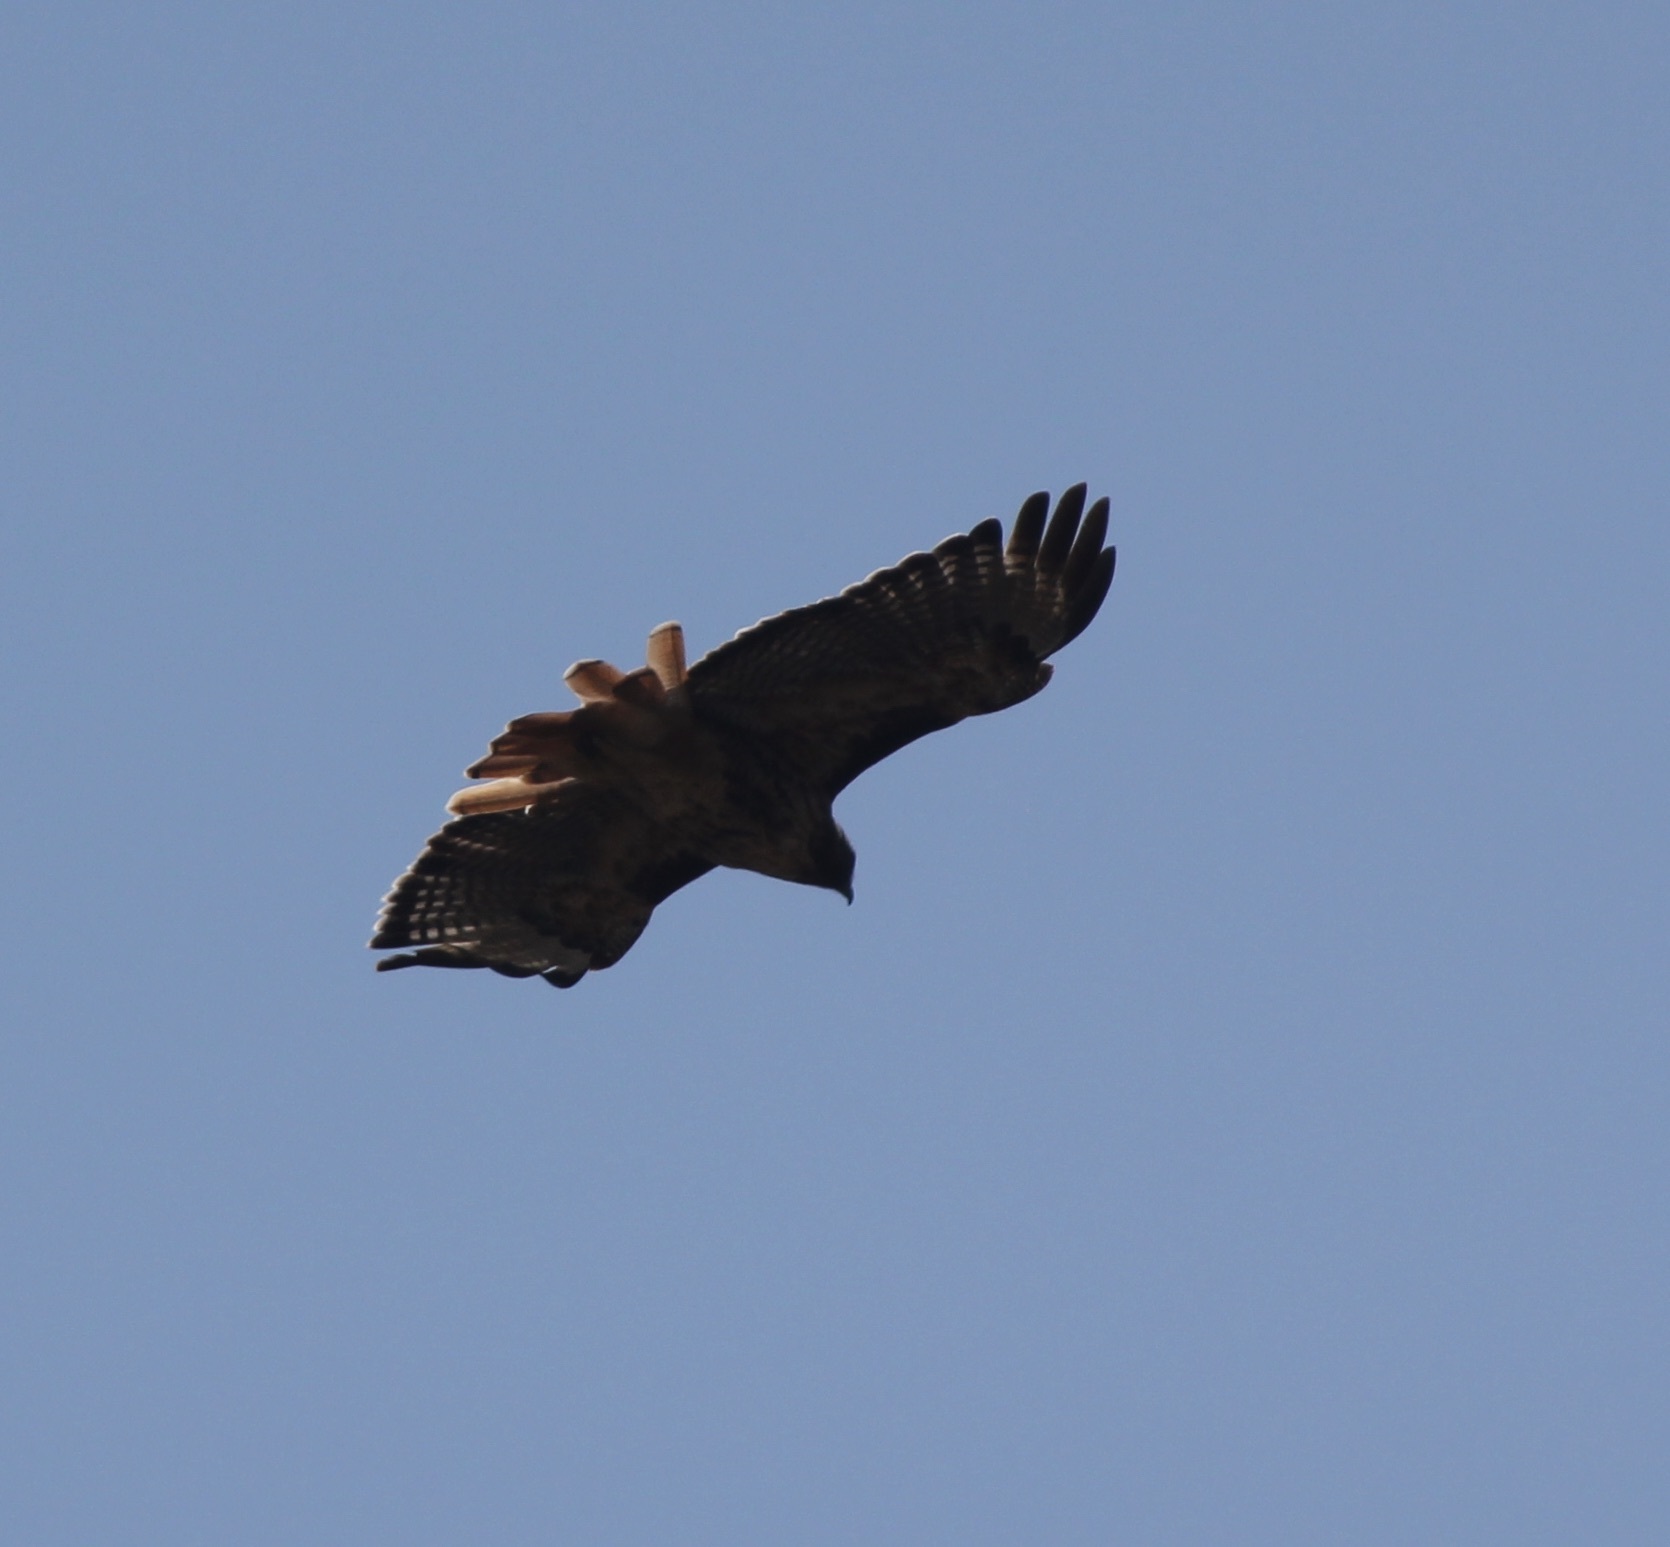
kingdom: Animalia
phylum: Chordata
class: Aves
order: Accipitriformes
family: Accipitridae
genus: Buteo
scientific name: Buteo jamaicensis
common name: Red-tailed hawk
